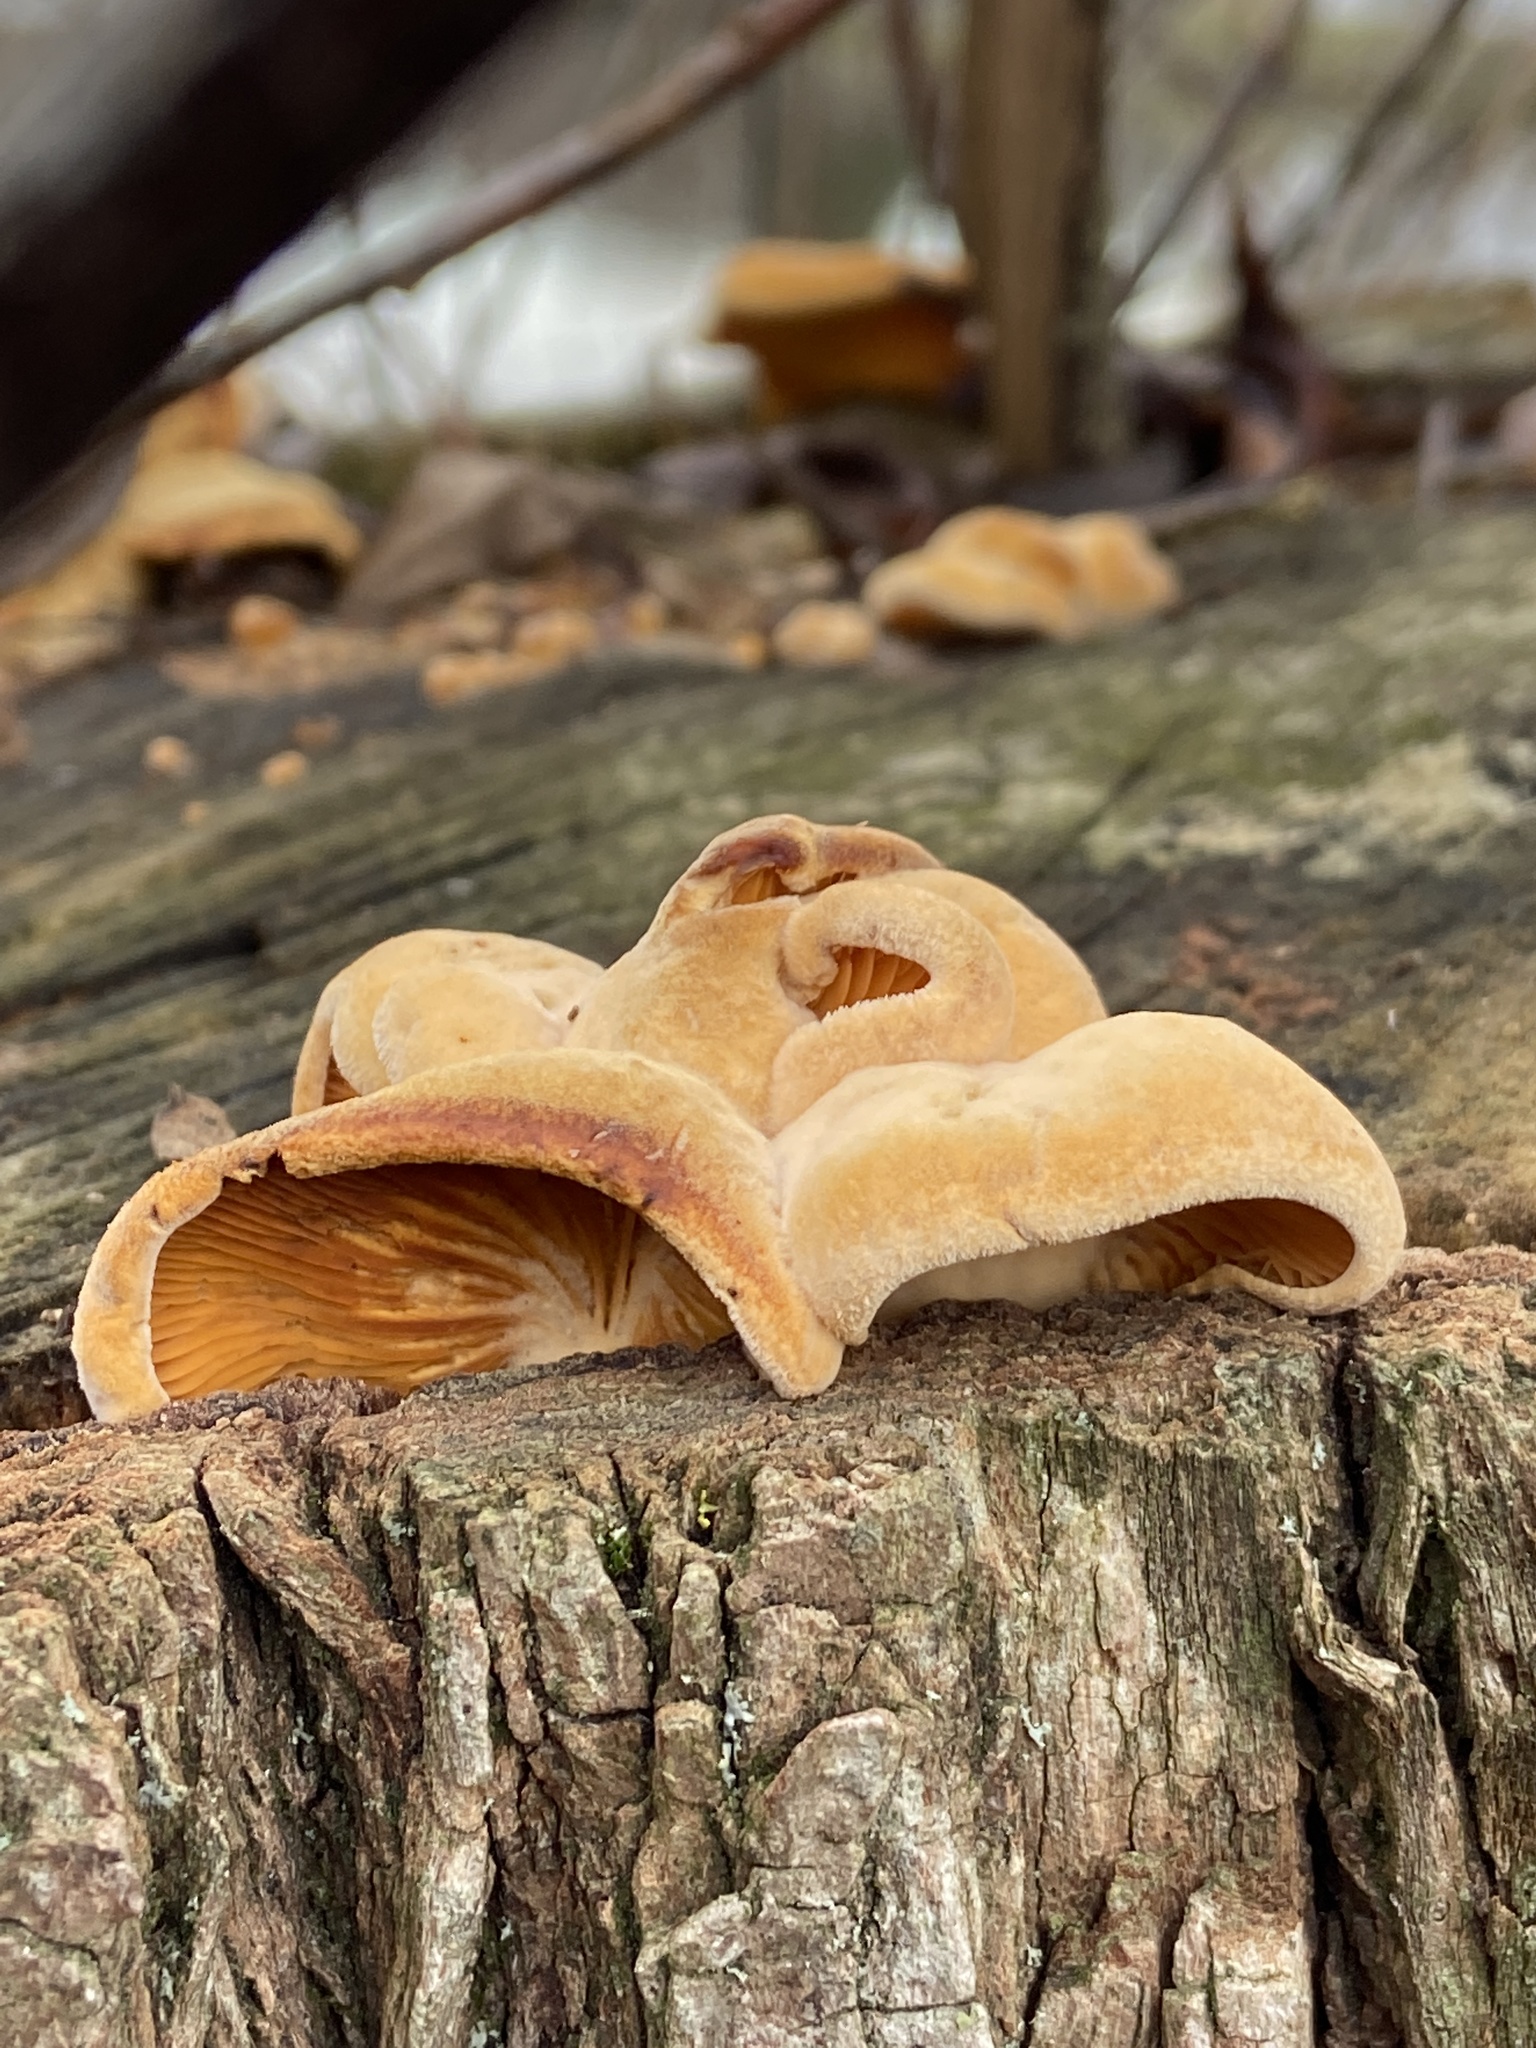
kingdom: Fungi
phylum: Basidiomycota
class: Agaricomycetes
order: Agaricales
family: Phyllotopsidaceae
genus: Phyllotopsis
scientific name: Phyllotopsis nidulans
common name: Orange mock oyster
